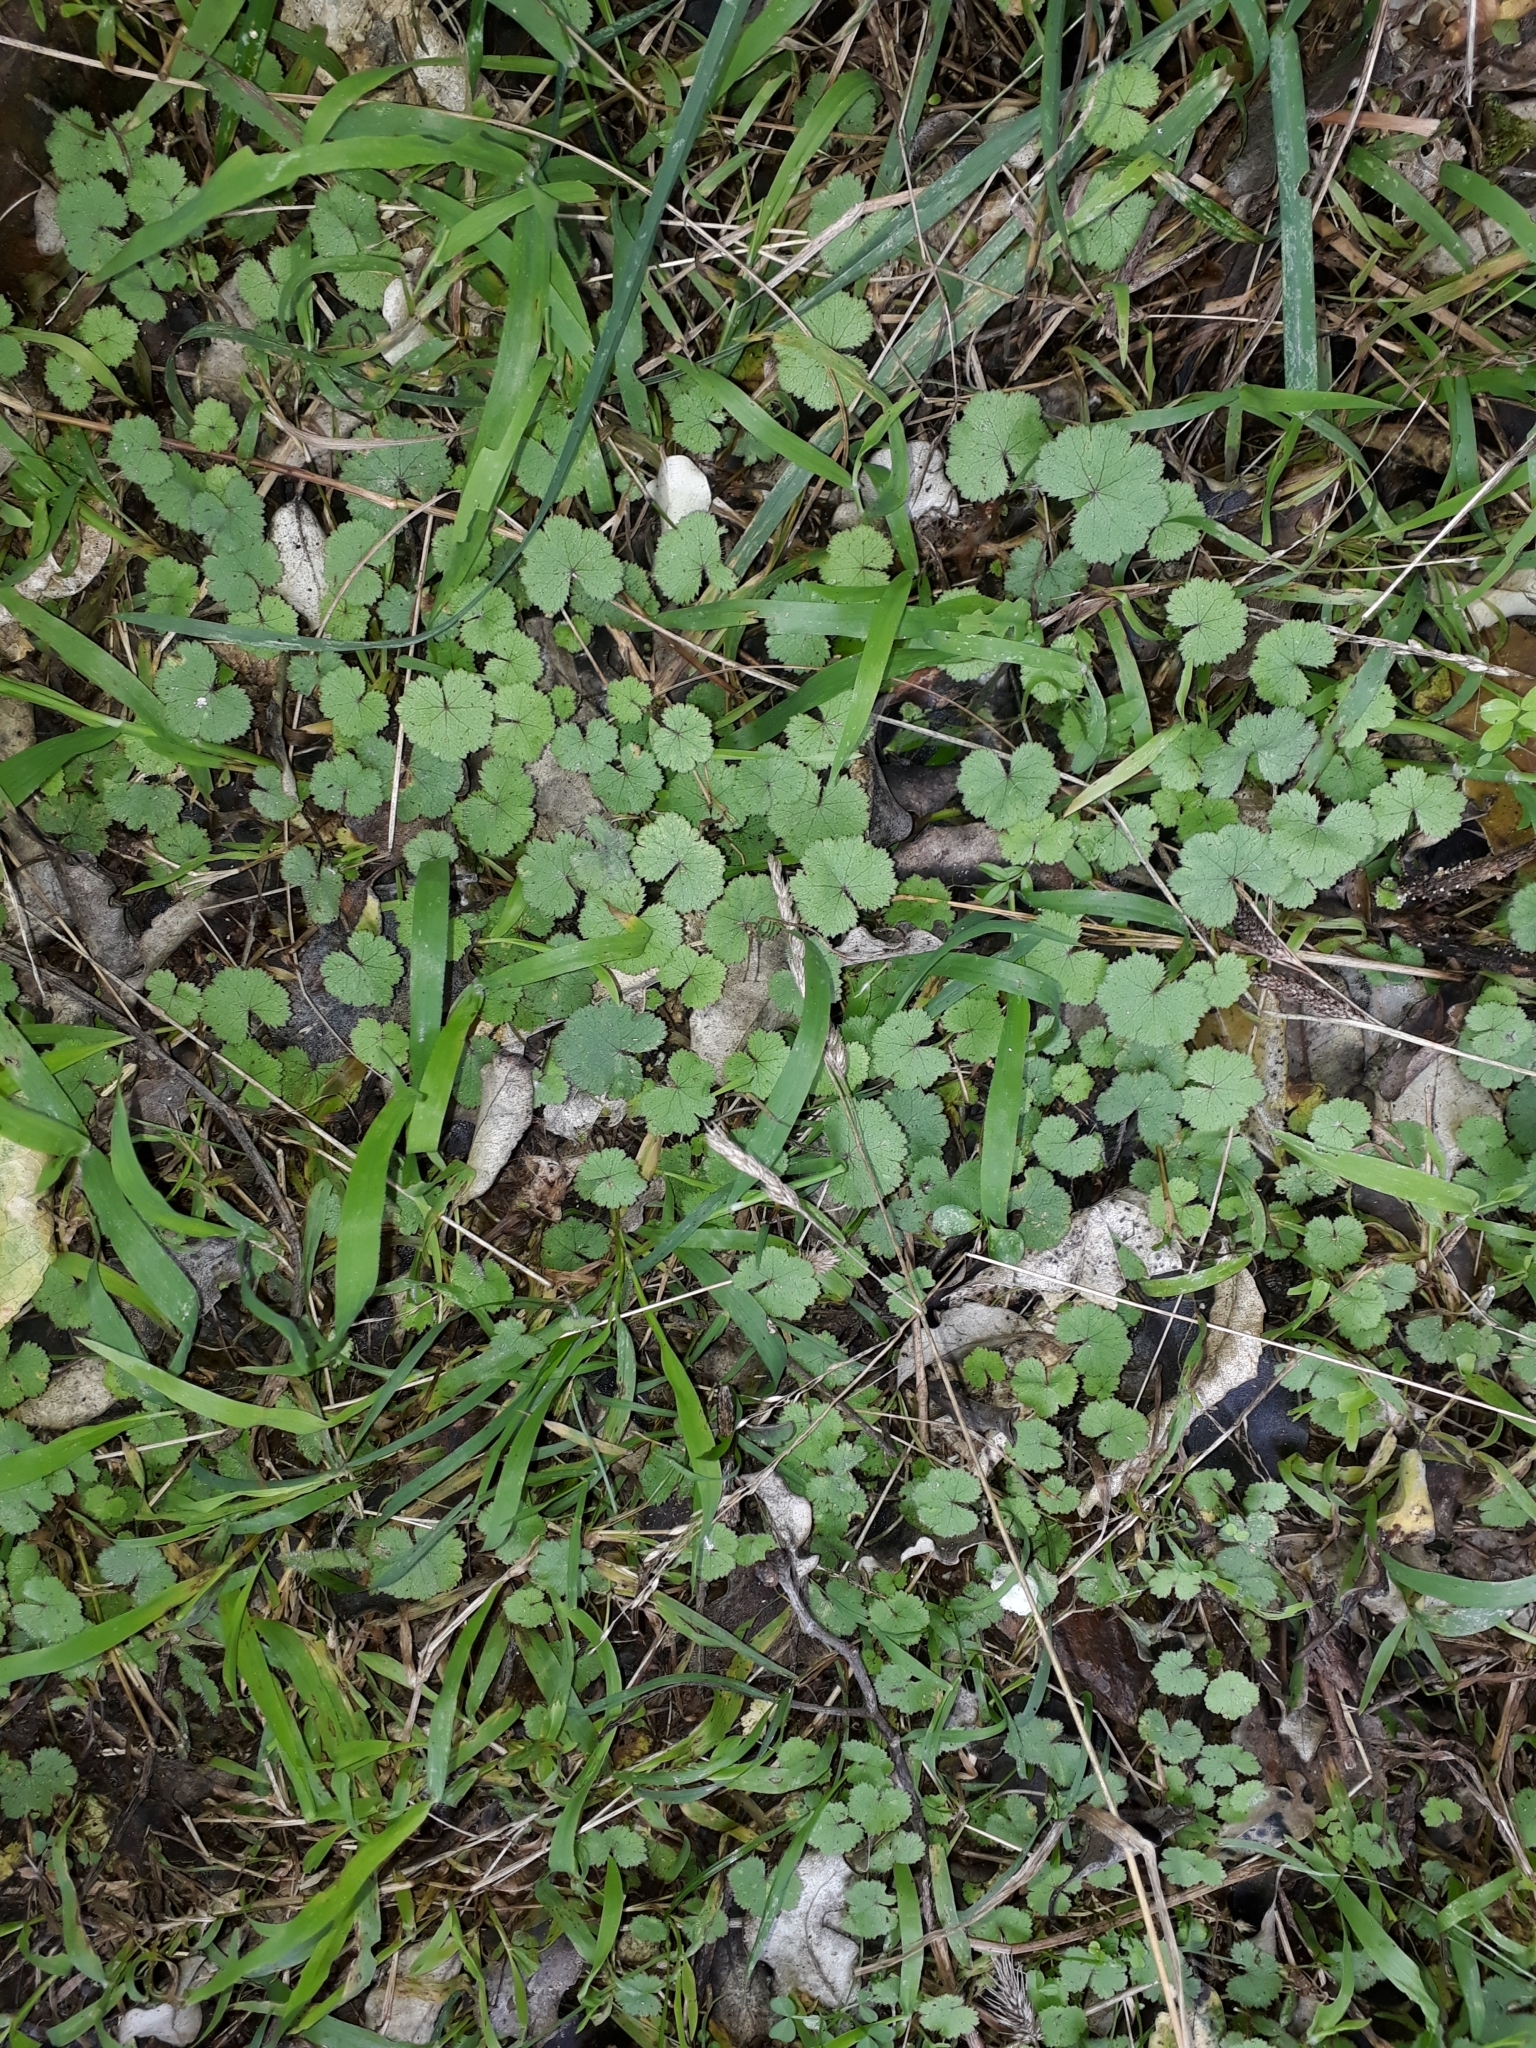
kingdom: Plantae
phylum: Tracheophyta
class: Magnoliopsida
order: Apiales
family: Araliaceae
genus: Hydrocotyle
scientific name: Hydrocotyle moschata
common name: Hairy pennywort
